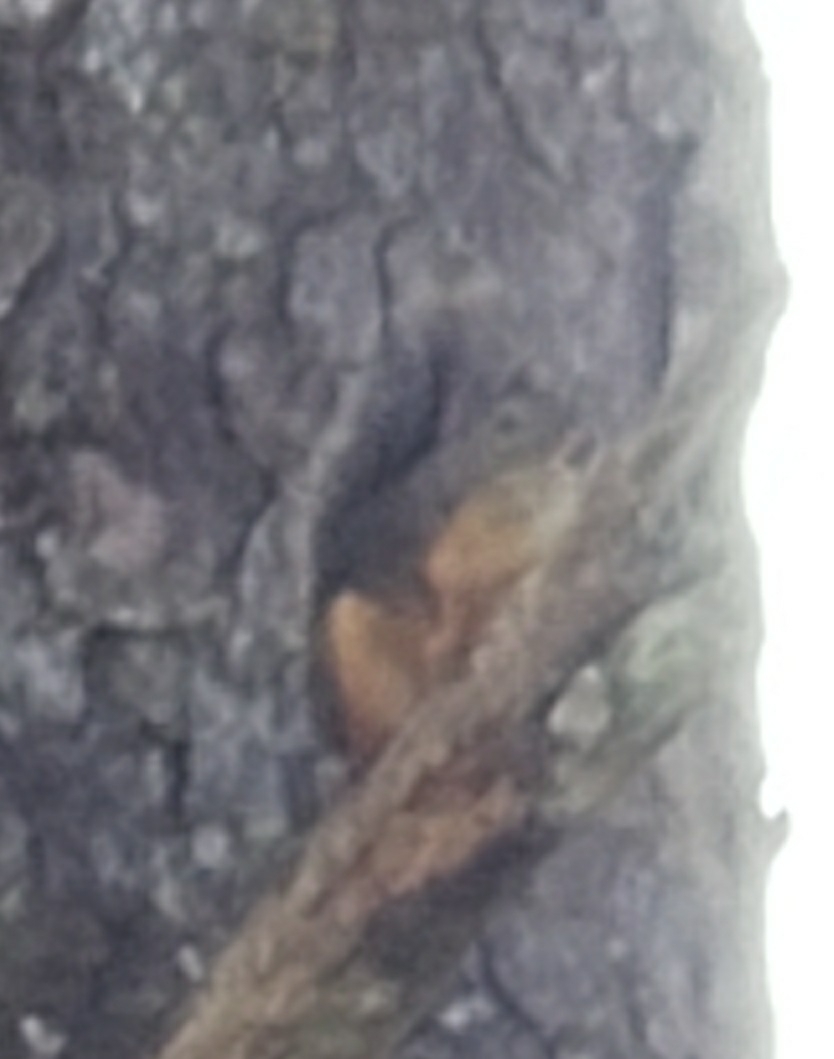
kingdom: Animalia
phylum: Chordata
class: Mammalia
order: Rodentia
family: Sciuridae
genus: Tamiasciurus
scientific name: Tamiasciurus douglasii
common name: Douglas's squirrel
